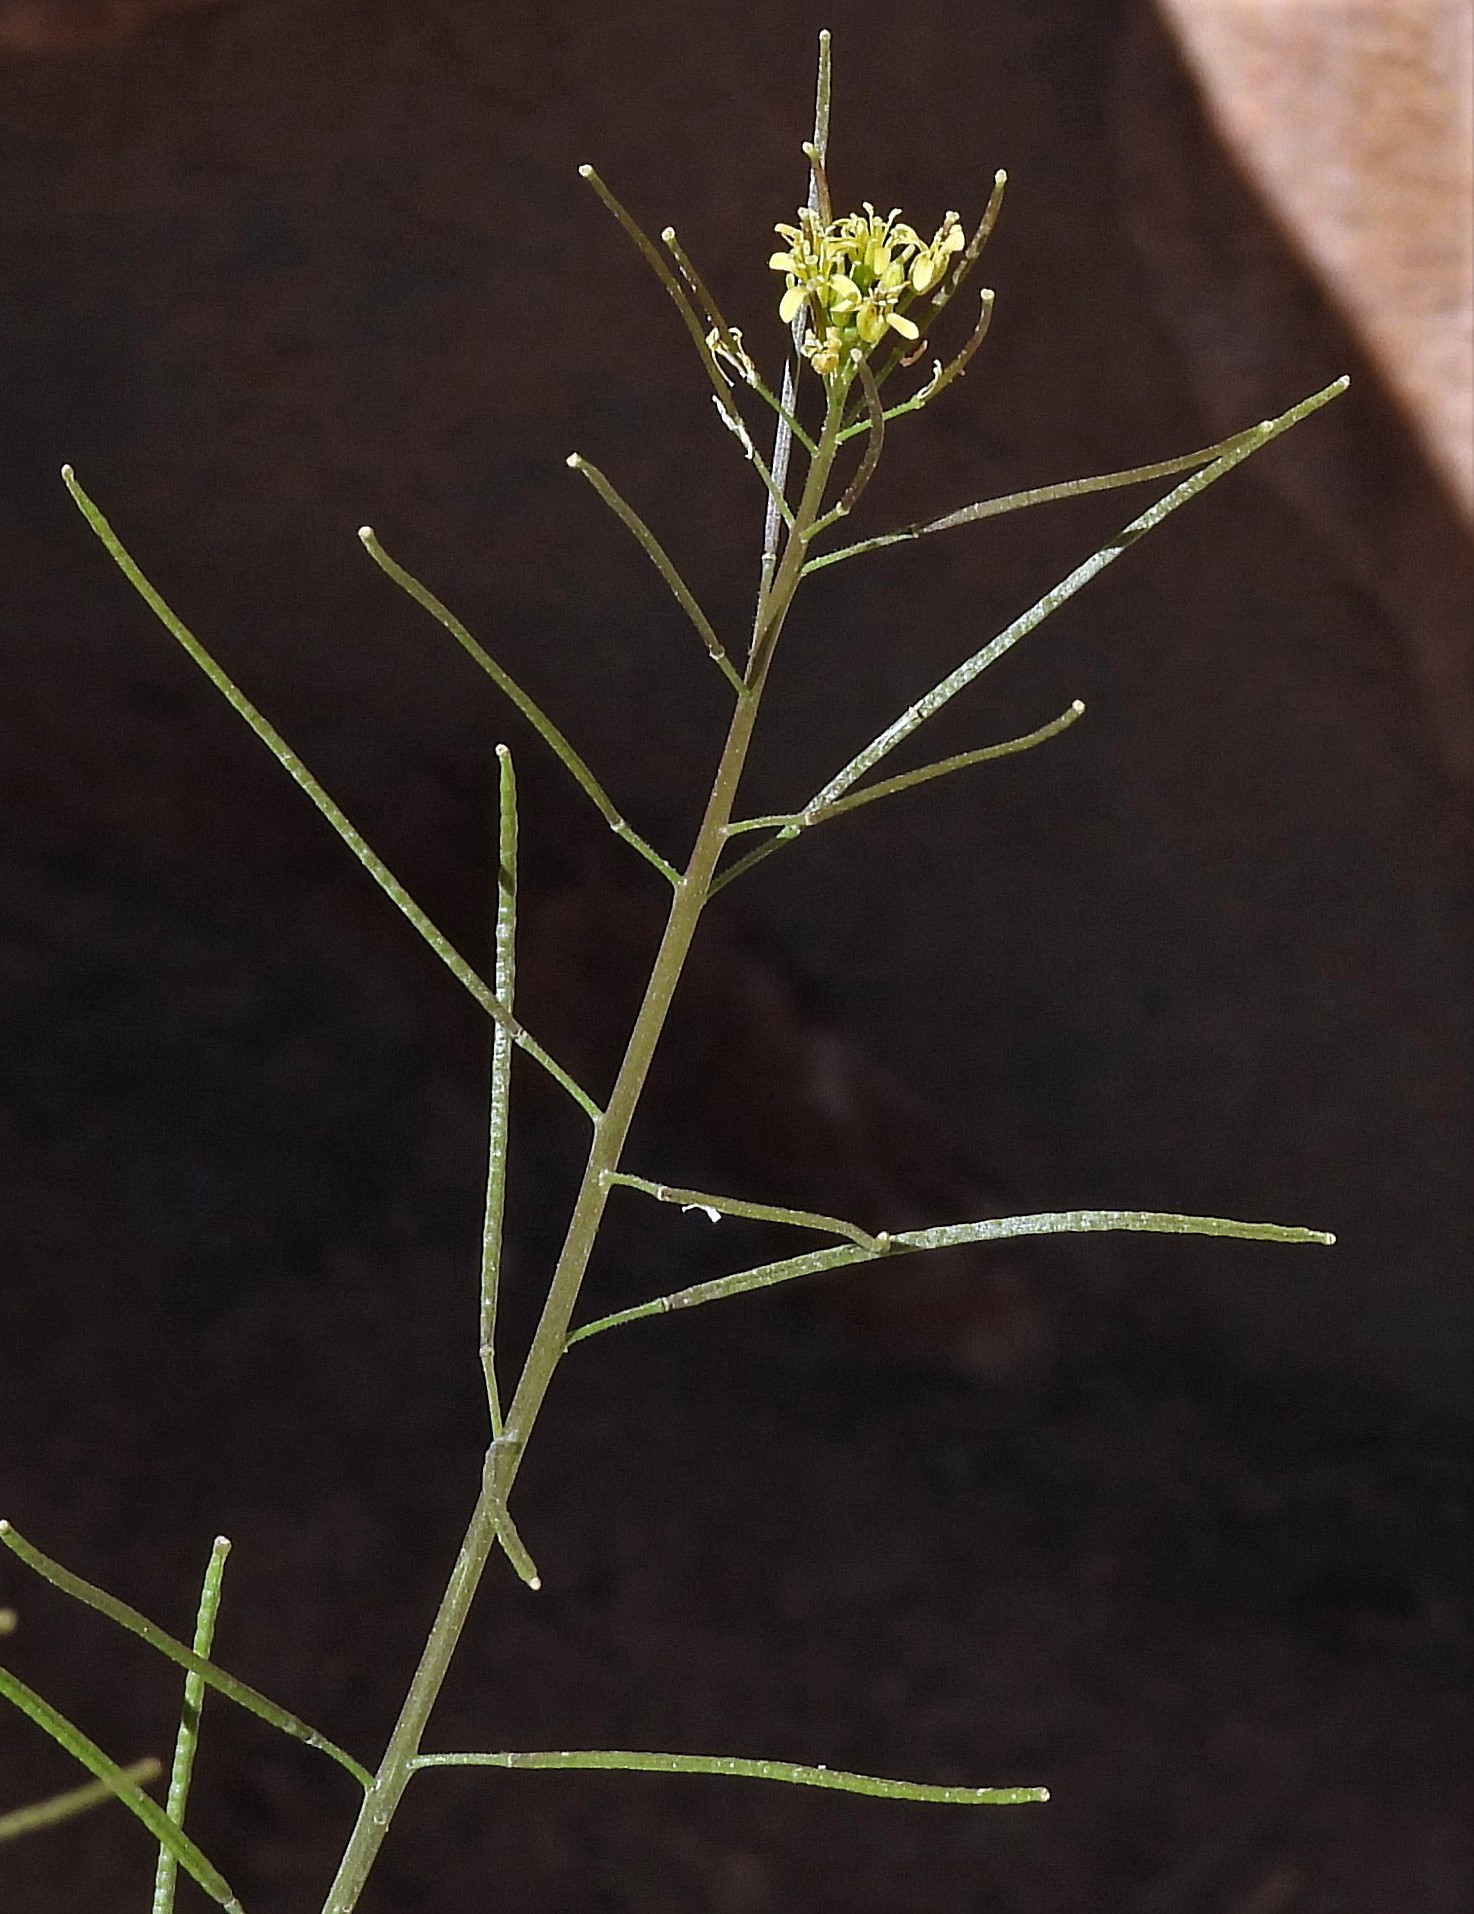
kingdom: Plantae
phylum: Tracheophyta
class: Magnoliopsida
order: Brassicales
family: Brassicaceae
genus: Sisymbrium
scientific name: Sisymbrium irio
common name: London rocket
